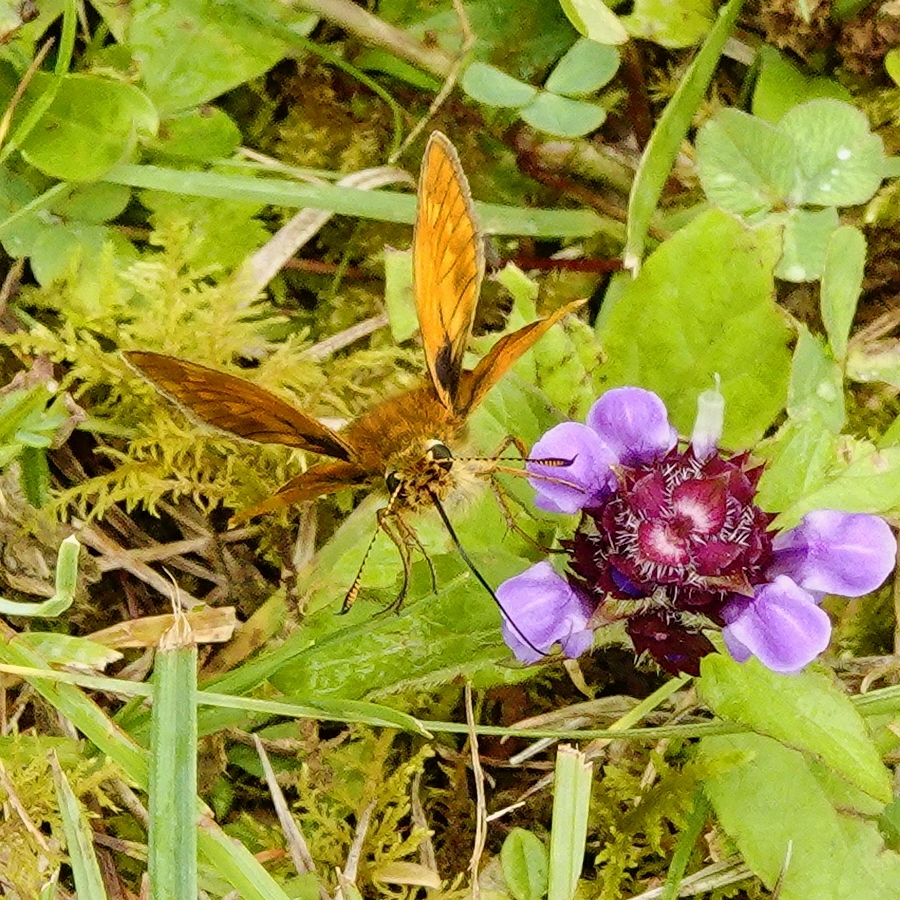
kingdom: Animalia
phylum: Arthropoda
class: Insecta
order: Lepidoptera
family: Hesperiidae
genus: Ochlodes
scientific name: Ochlodes venata
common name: Large skipper
